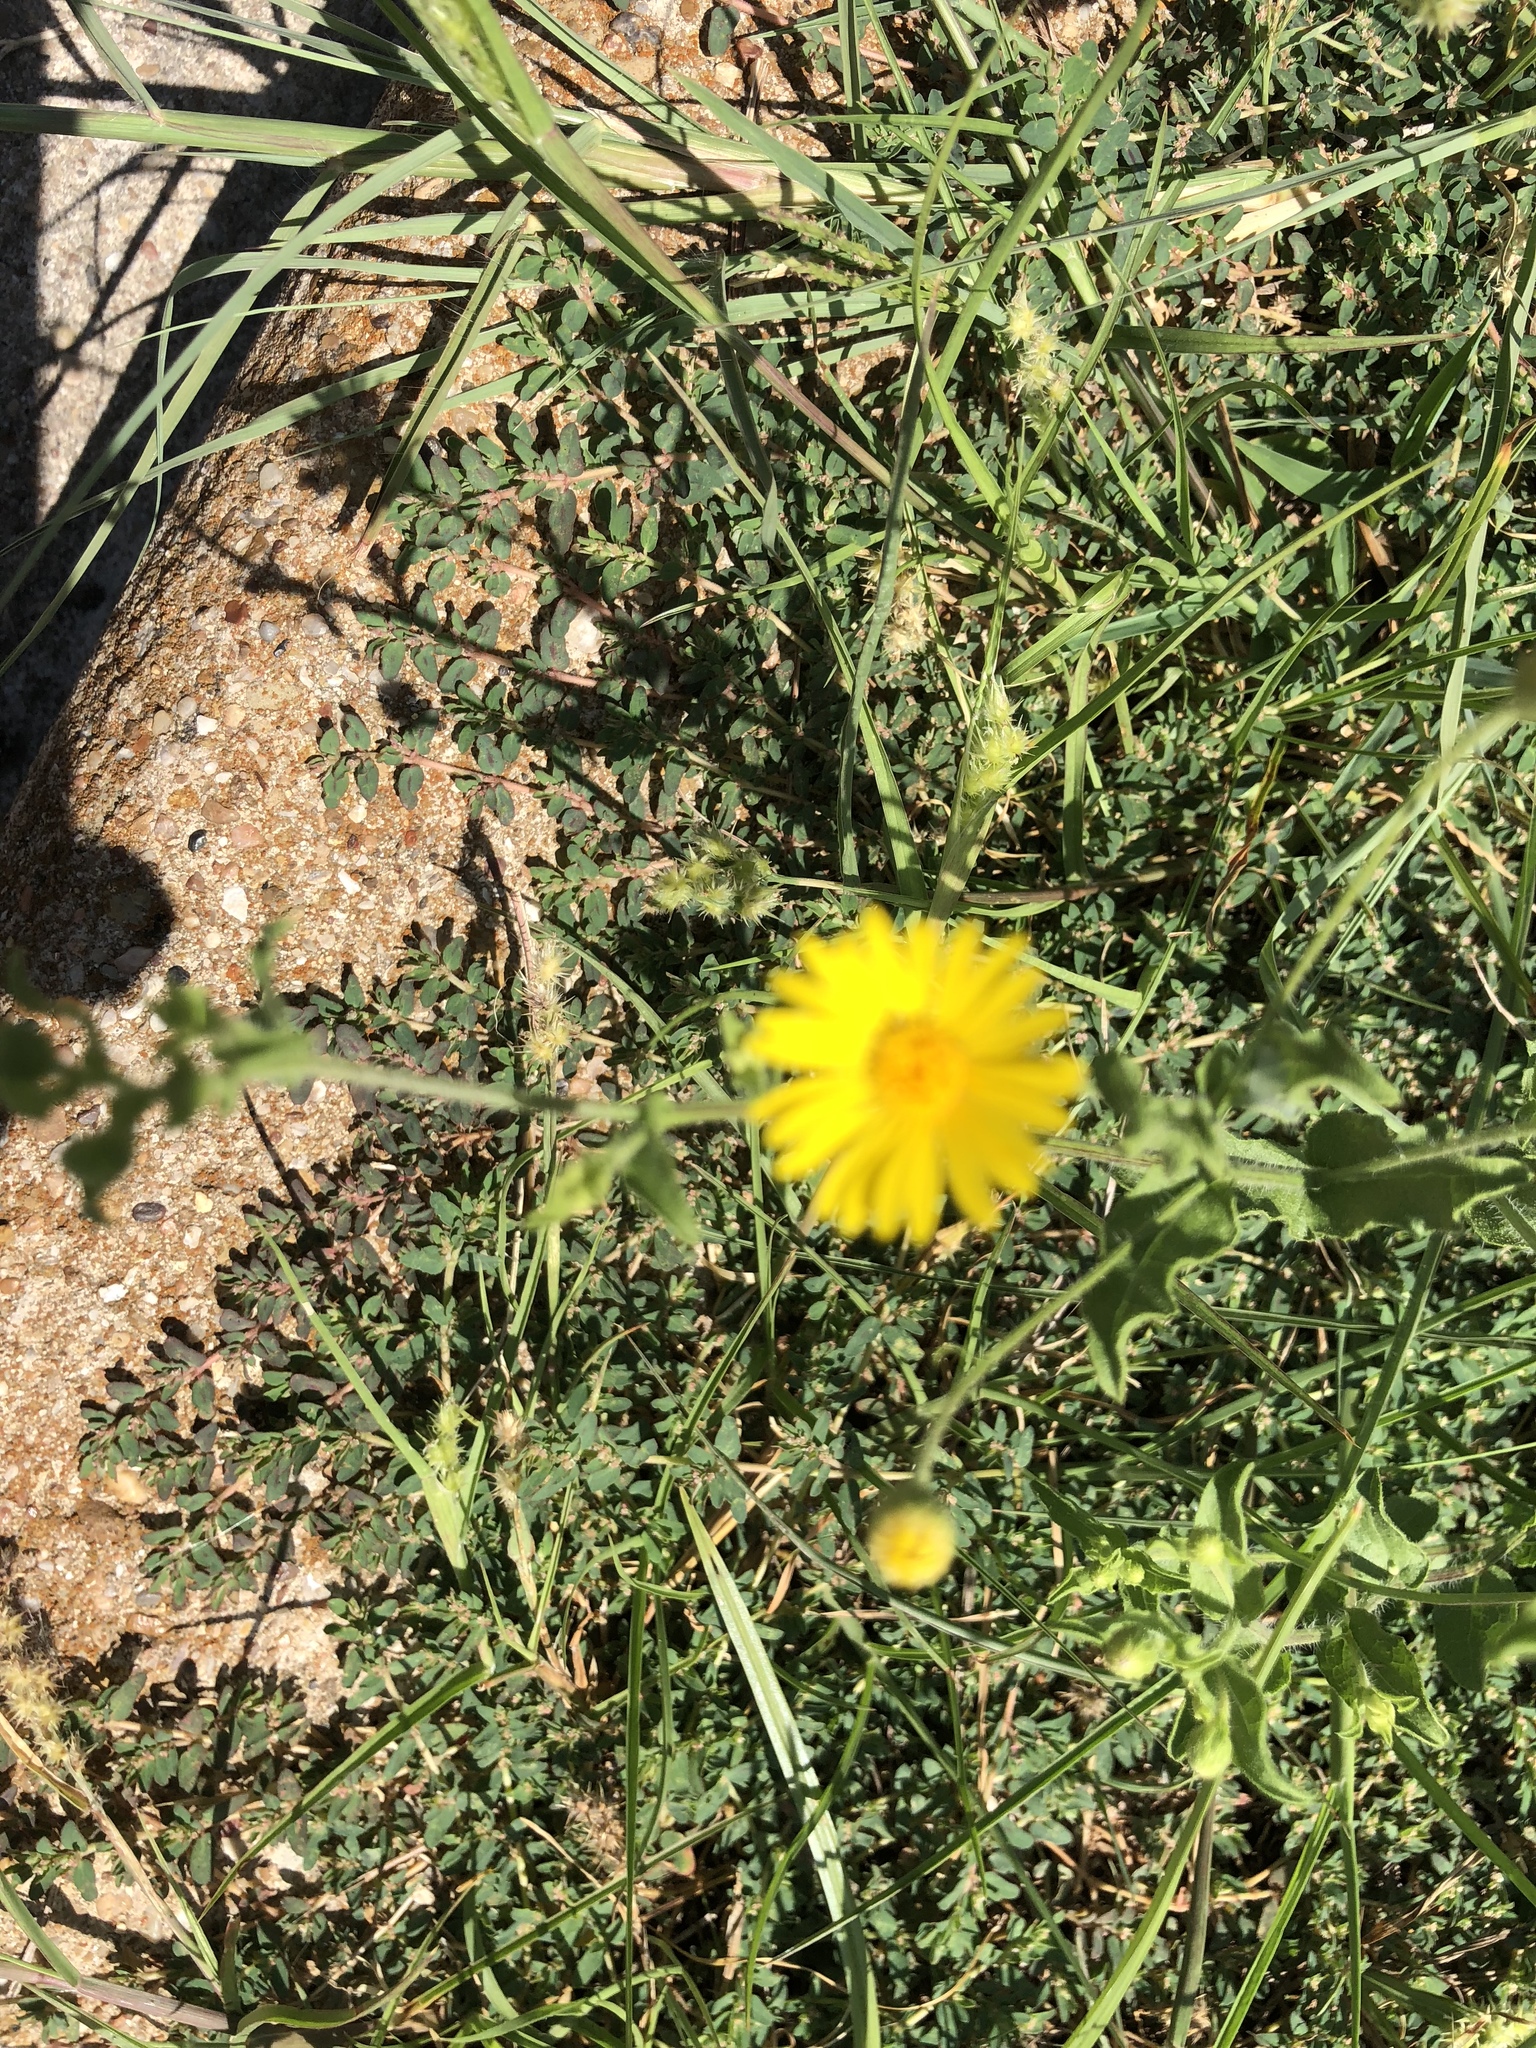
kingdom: Plantae
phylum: Tracheophyta
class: Magnoliopsida
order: Asterales
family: Asteraceae
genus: Heterotheca
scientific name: Heterotheca subaxillaris
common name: Camphorweed
